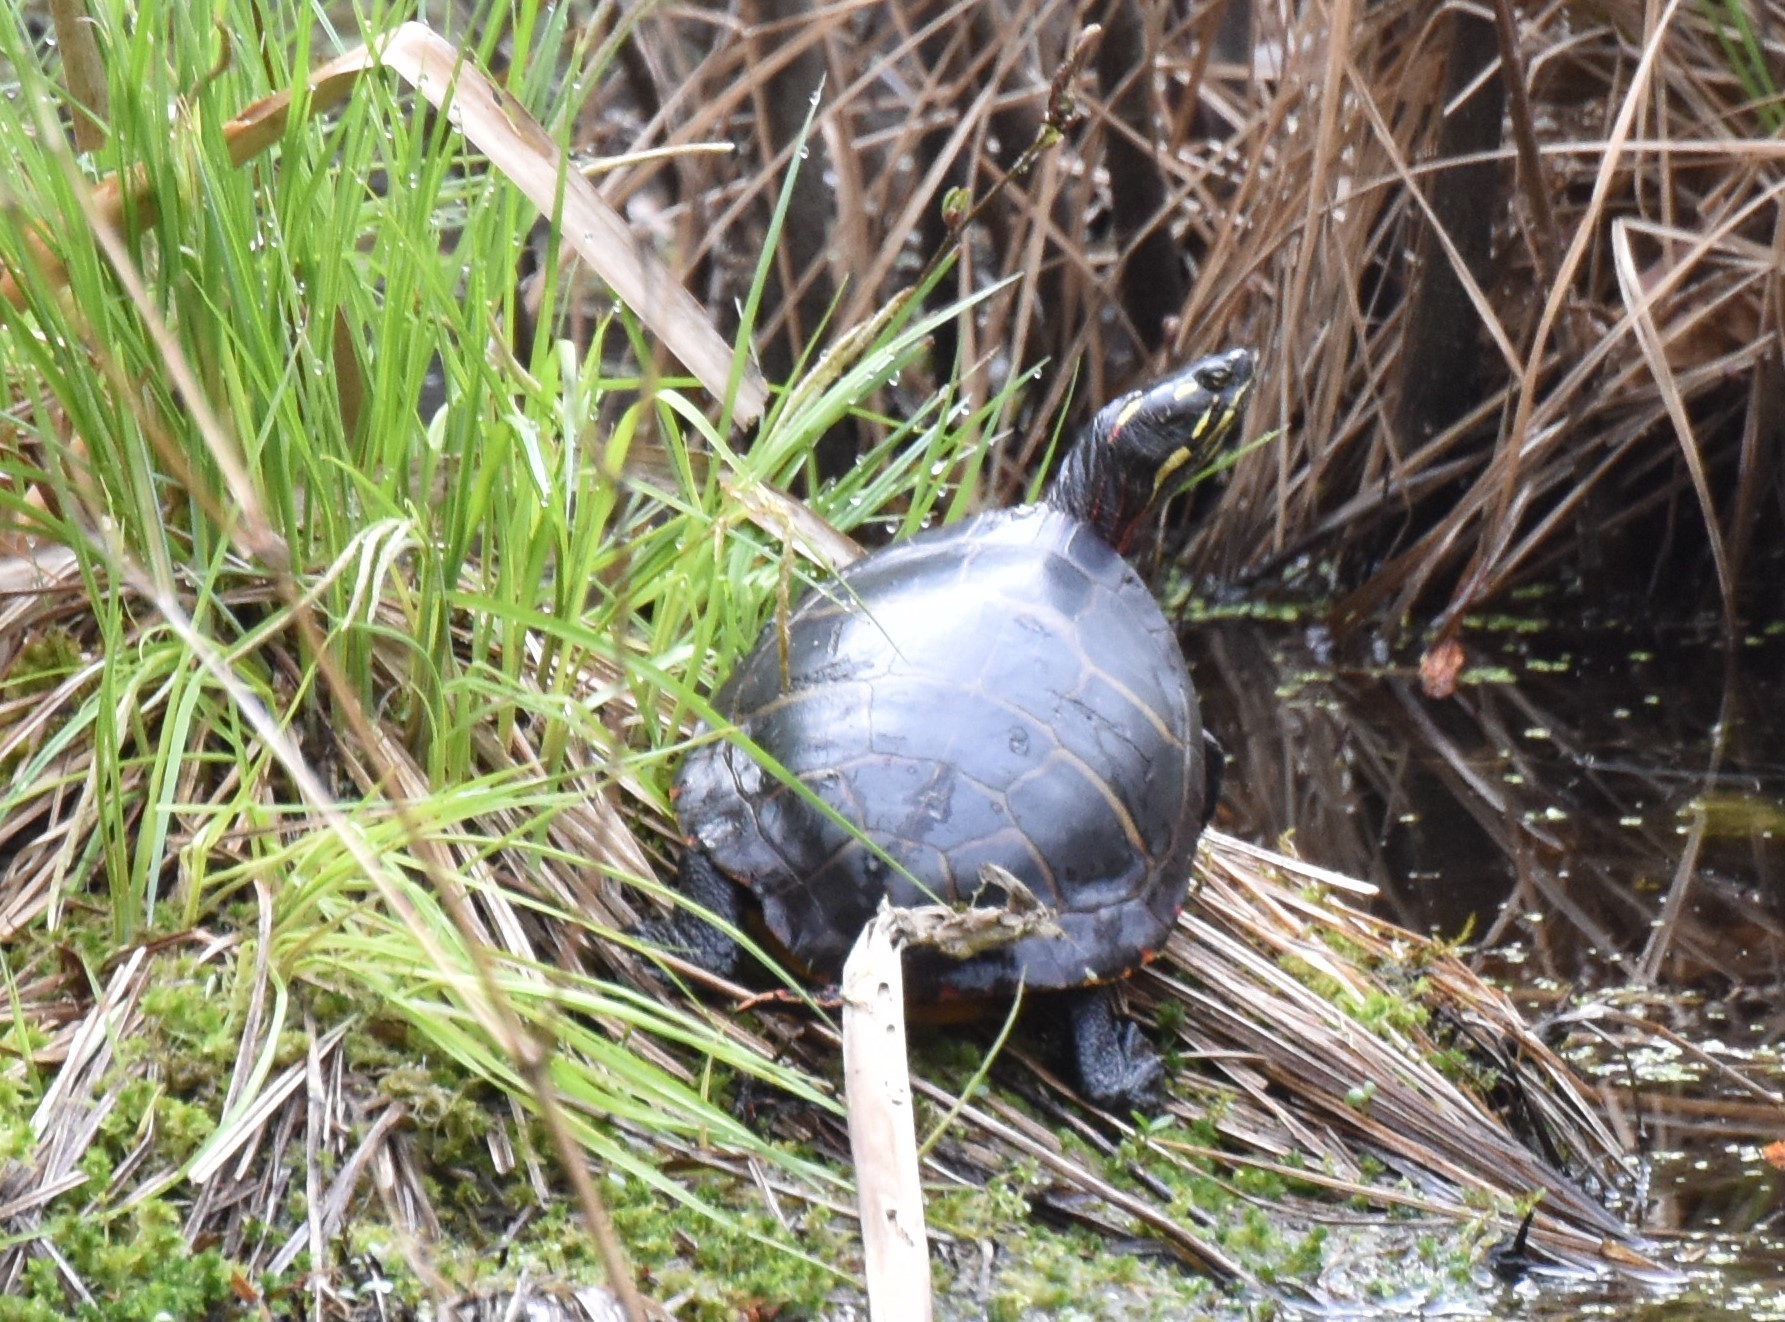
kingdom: Animalia
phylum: Chordata
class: Testudines
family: Emydidae
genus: Chrysemys
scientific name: Chrysemys picta
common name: Painted turtle
